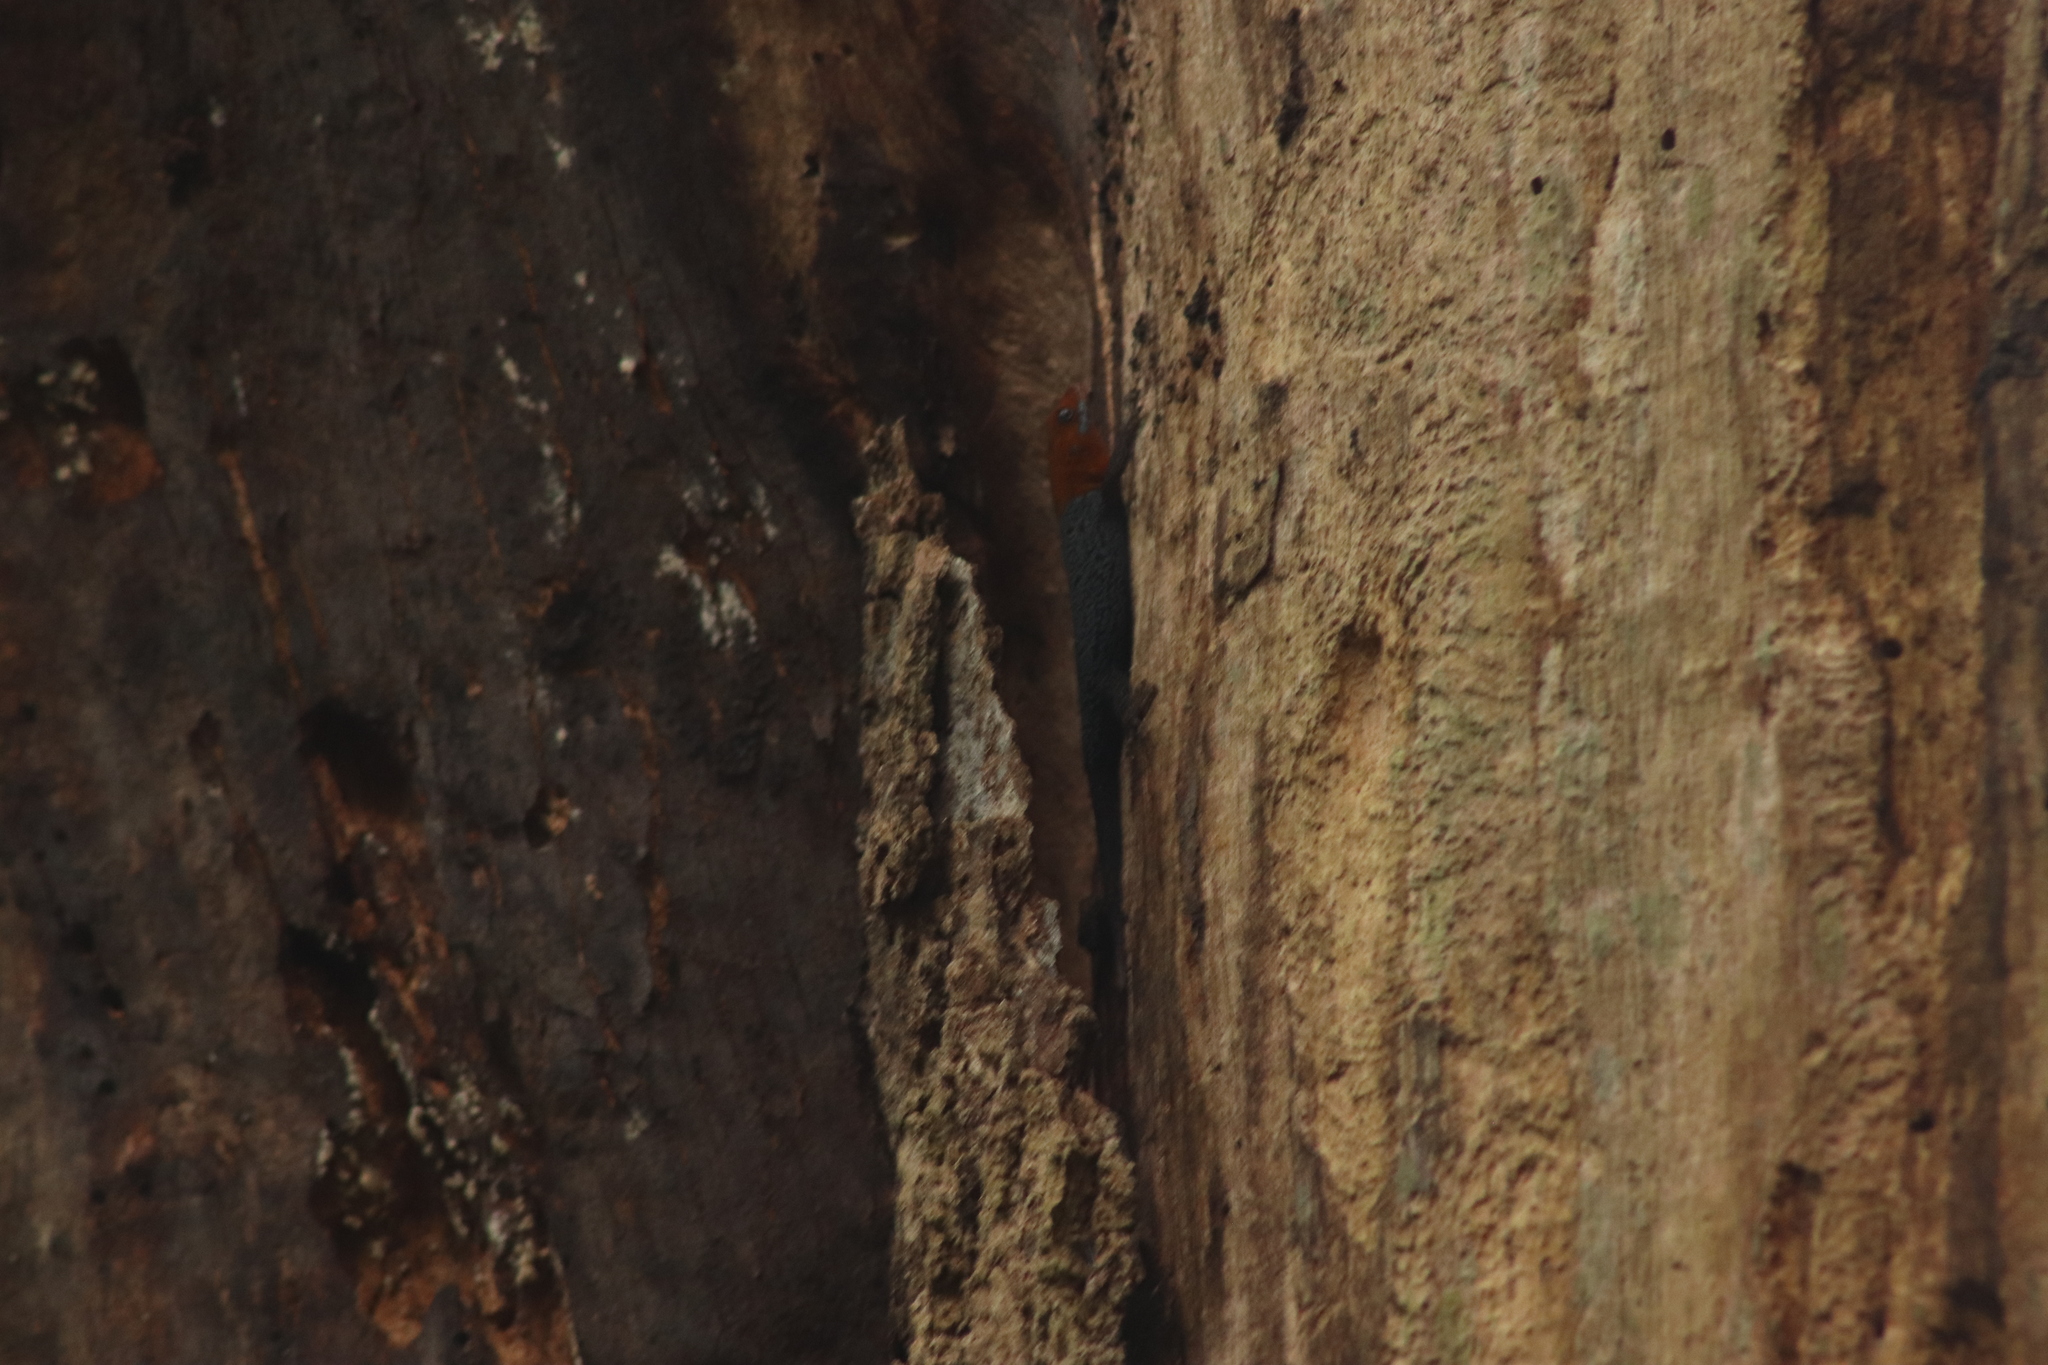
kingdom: Animalia
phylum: Chordata
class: Squamata
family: Sphaerodactylidae
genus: Gonatodes
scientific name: Gonatodes albogularis
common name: Yellow-headed gecko
